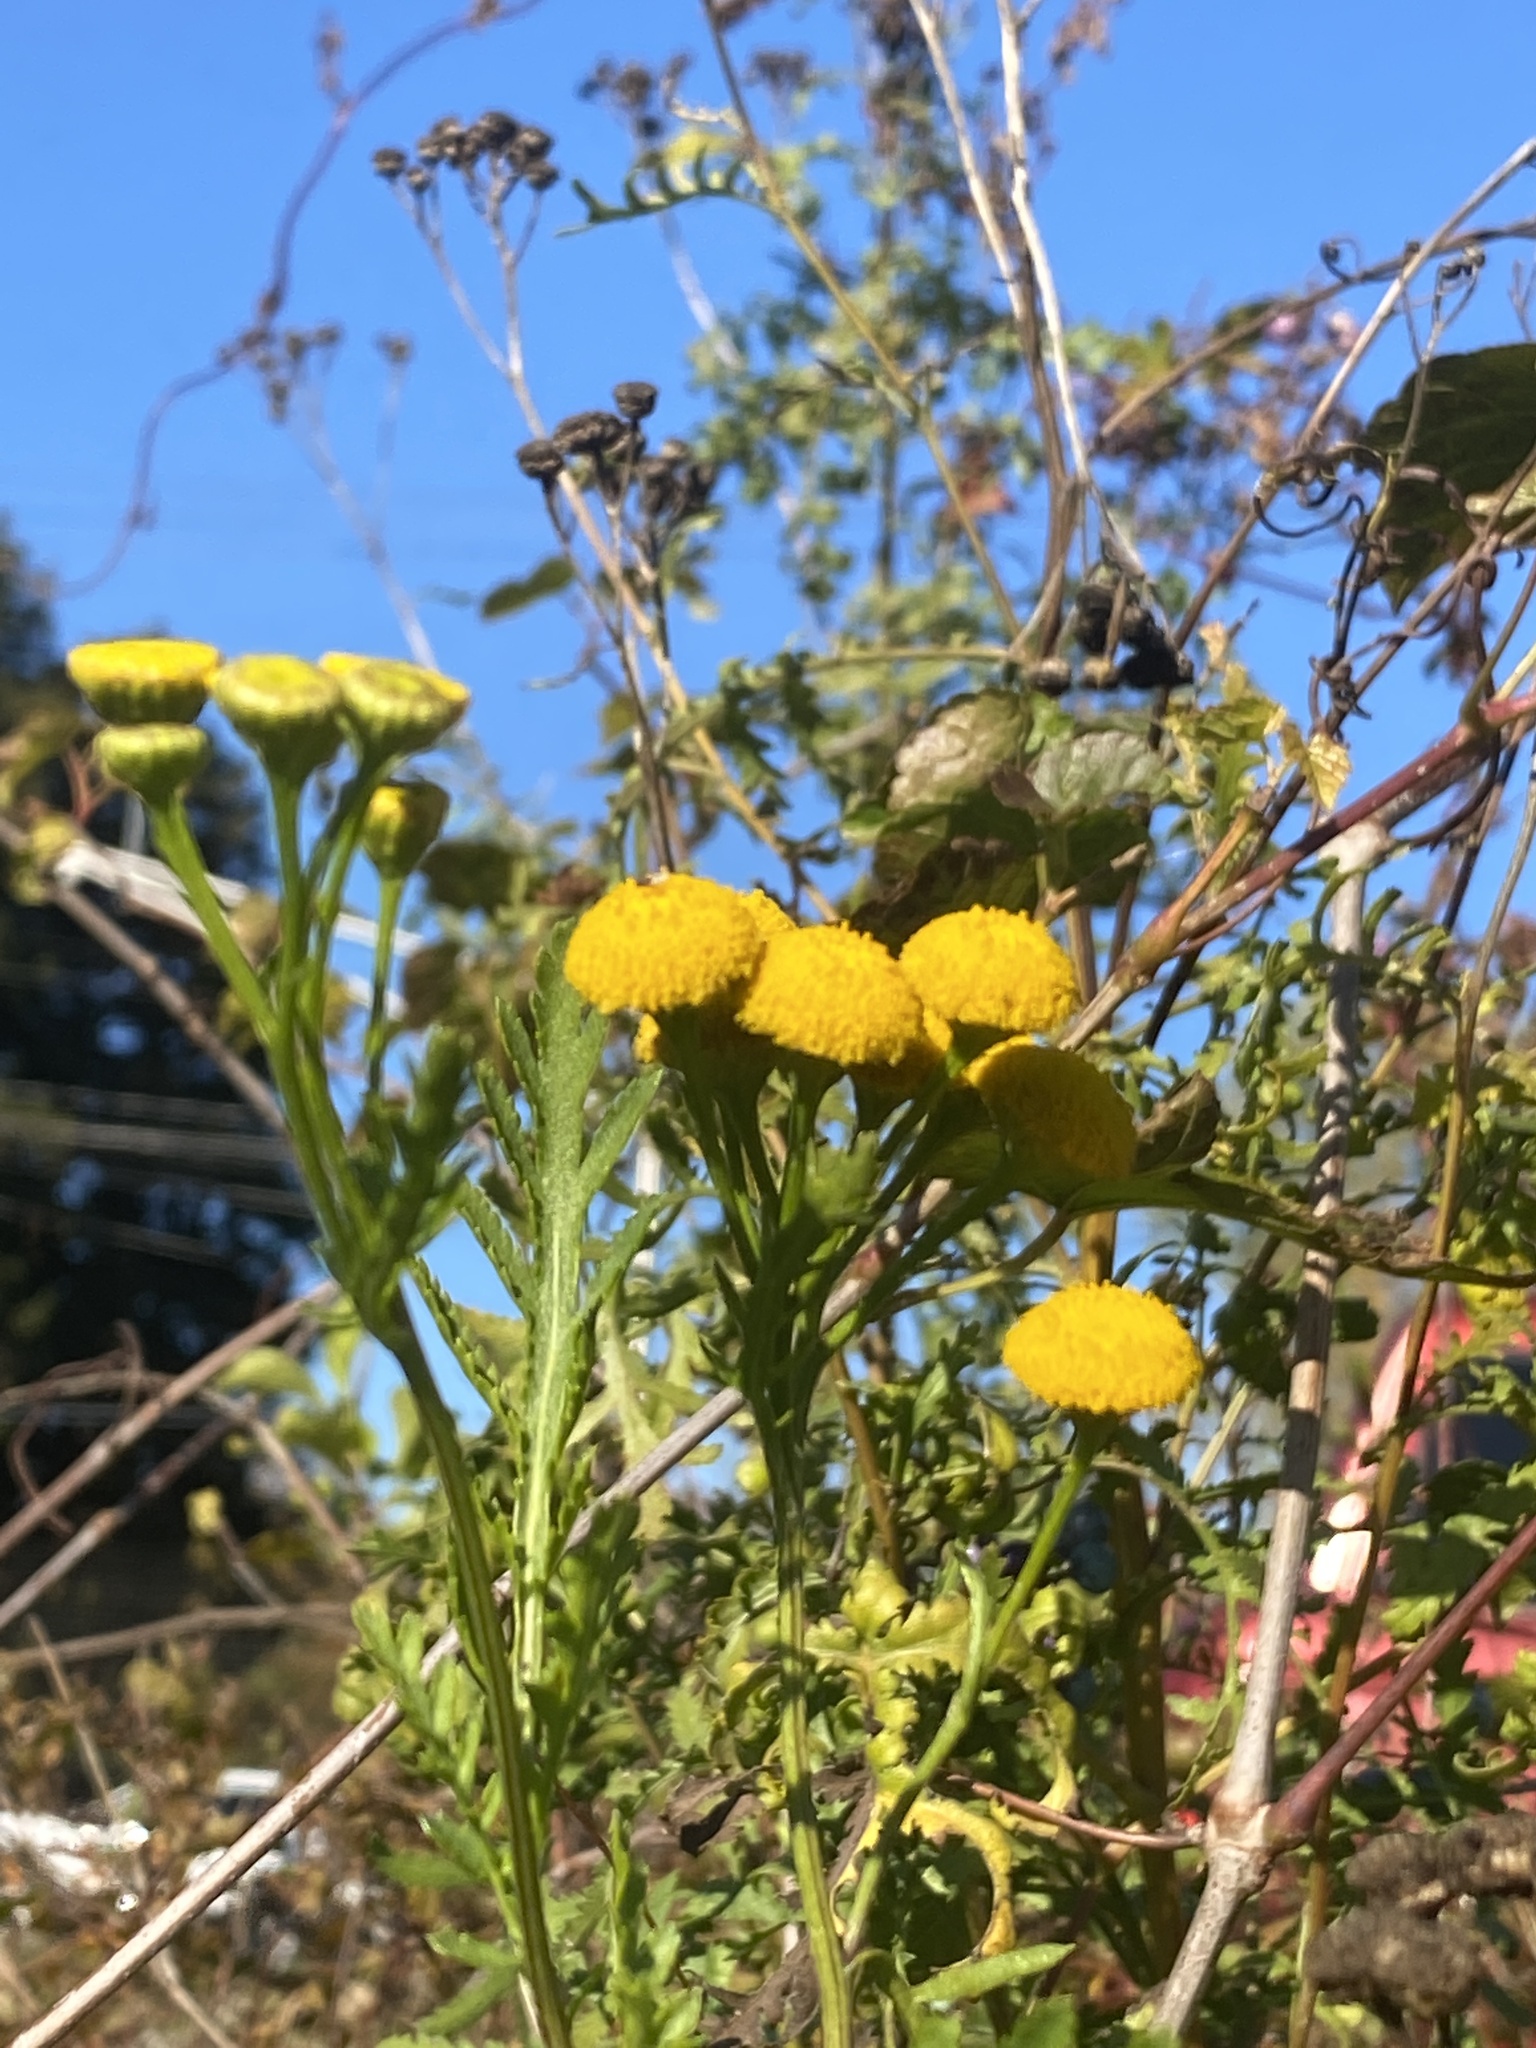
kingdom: Plantae
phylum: Tracheophyta
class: Magnoliopsida
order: Asterales
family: Asteraceae
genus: Tanacetum
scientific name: Tanacetum vulgare
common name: Common tansy
